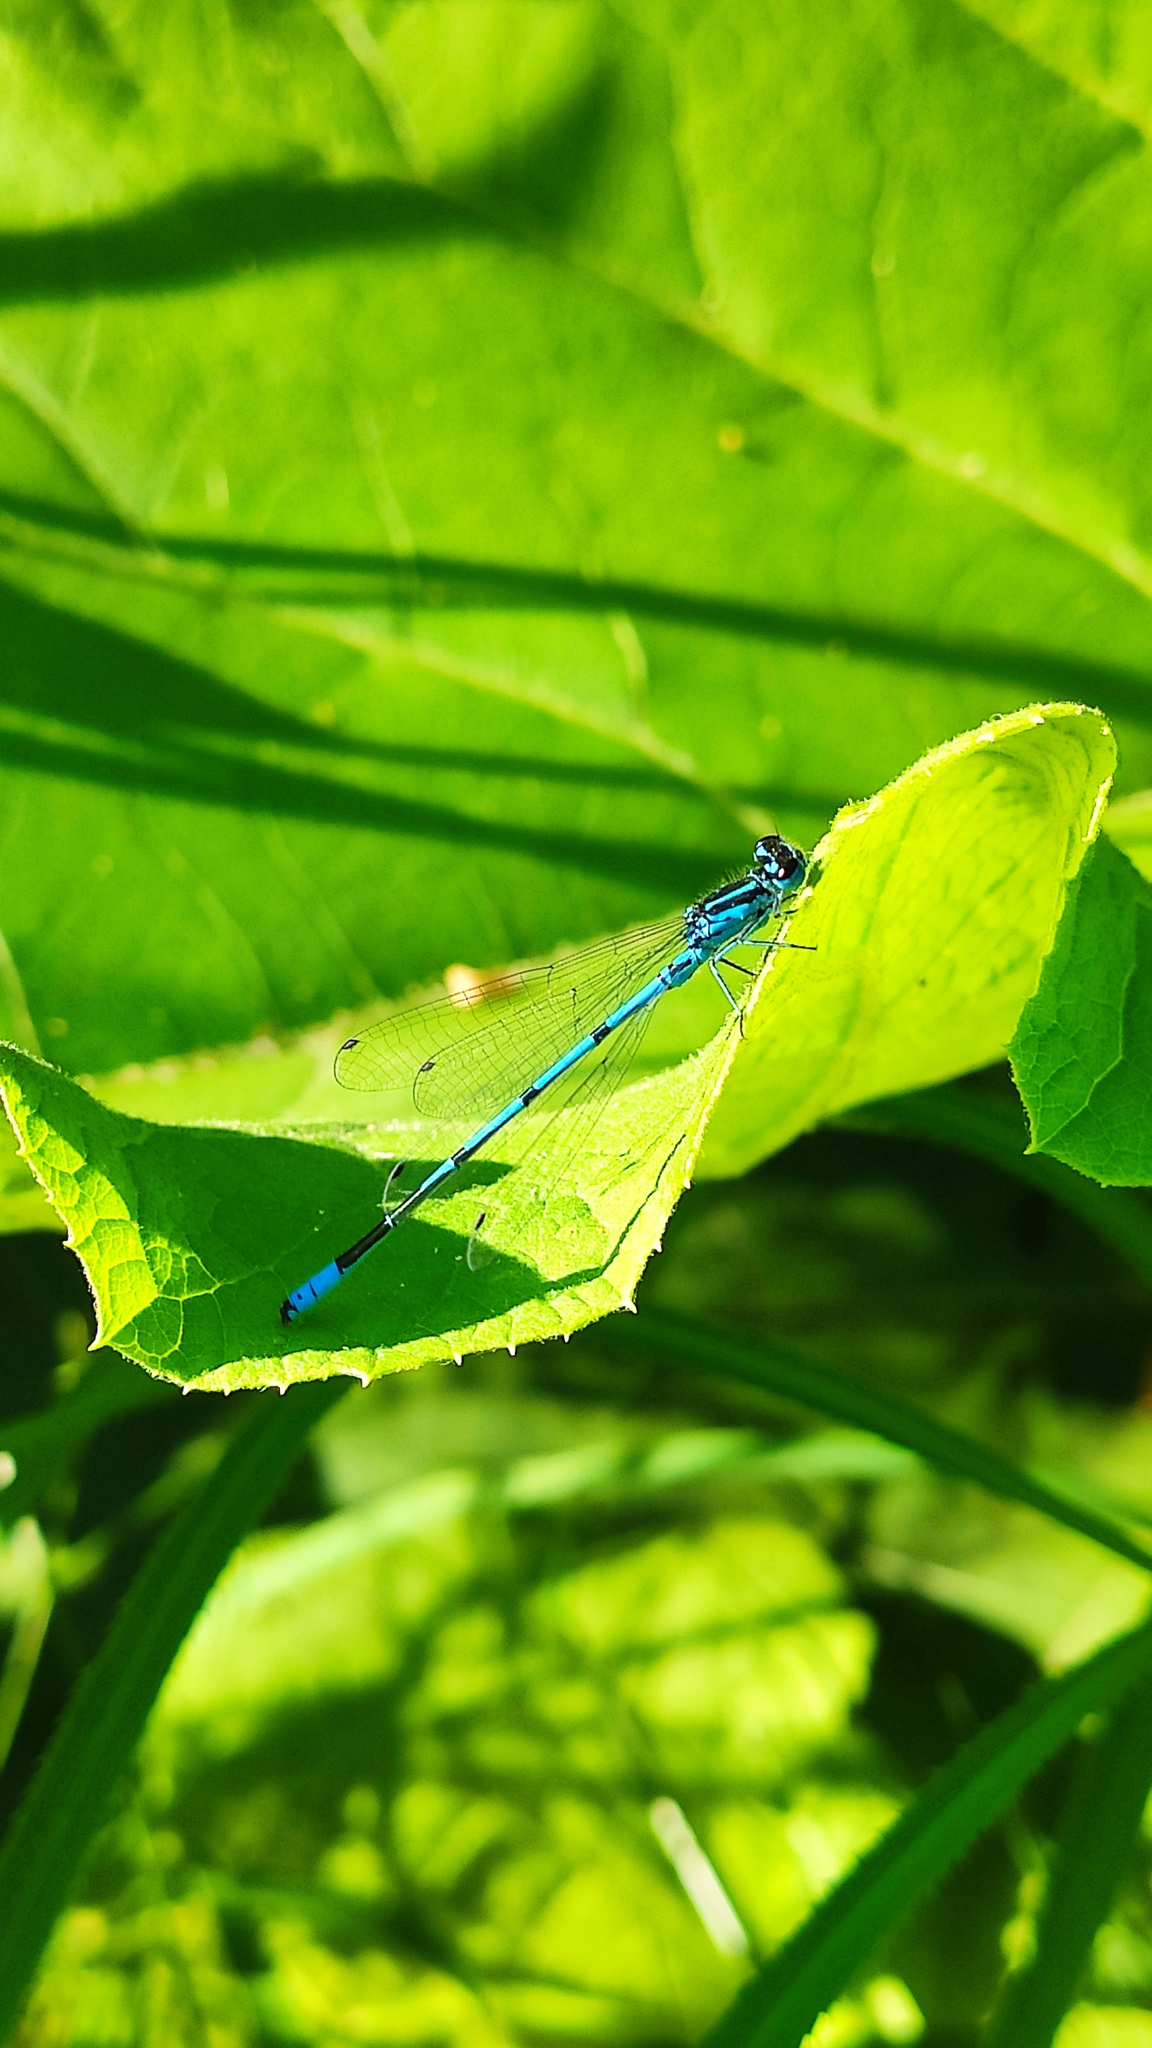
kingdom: Animalia
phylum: Arthropoda
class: Insecta
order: Odonata
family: Coenagrionidae
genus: Coenagrion
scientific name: Coenagrion puella
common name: Azure damselfly
